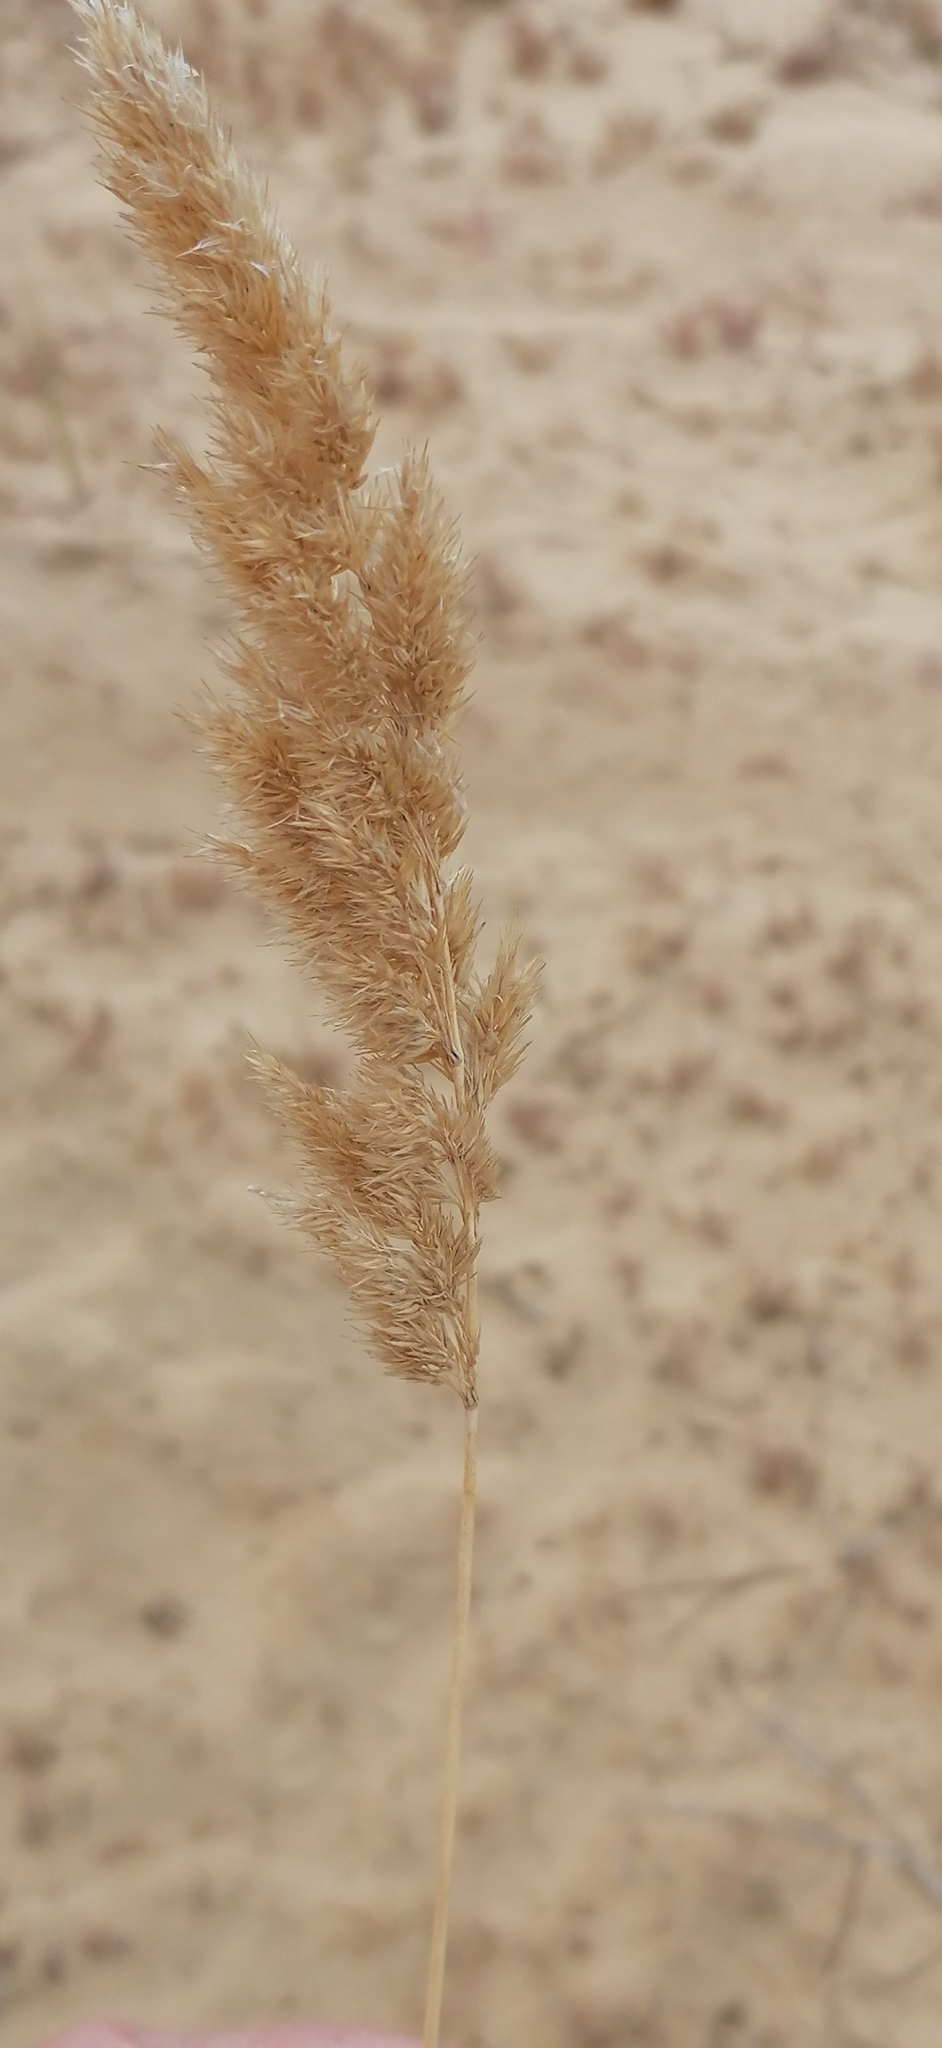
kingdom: Plantae
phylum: Tracheophyta
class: Liliopsida
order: Poales
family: Poaceae
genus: Calamagrostis
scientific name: Calamagrostis epigejos
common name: Wood small-reed
